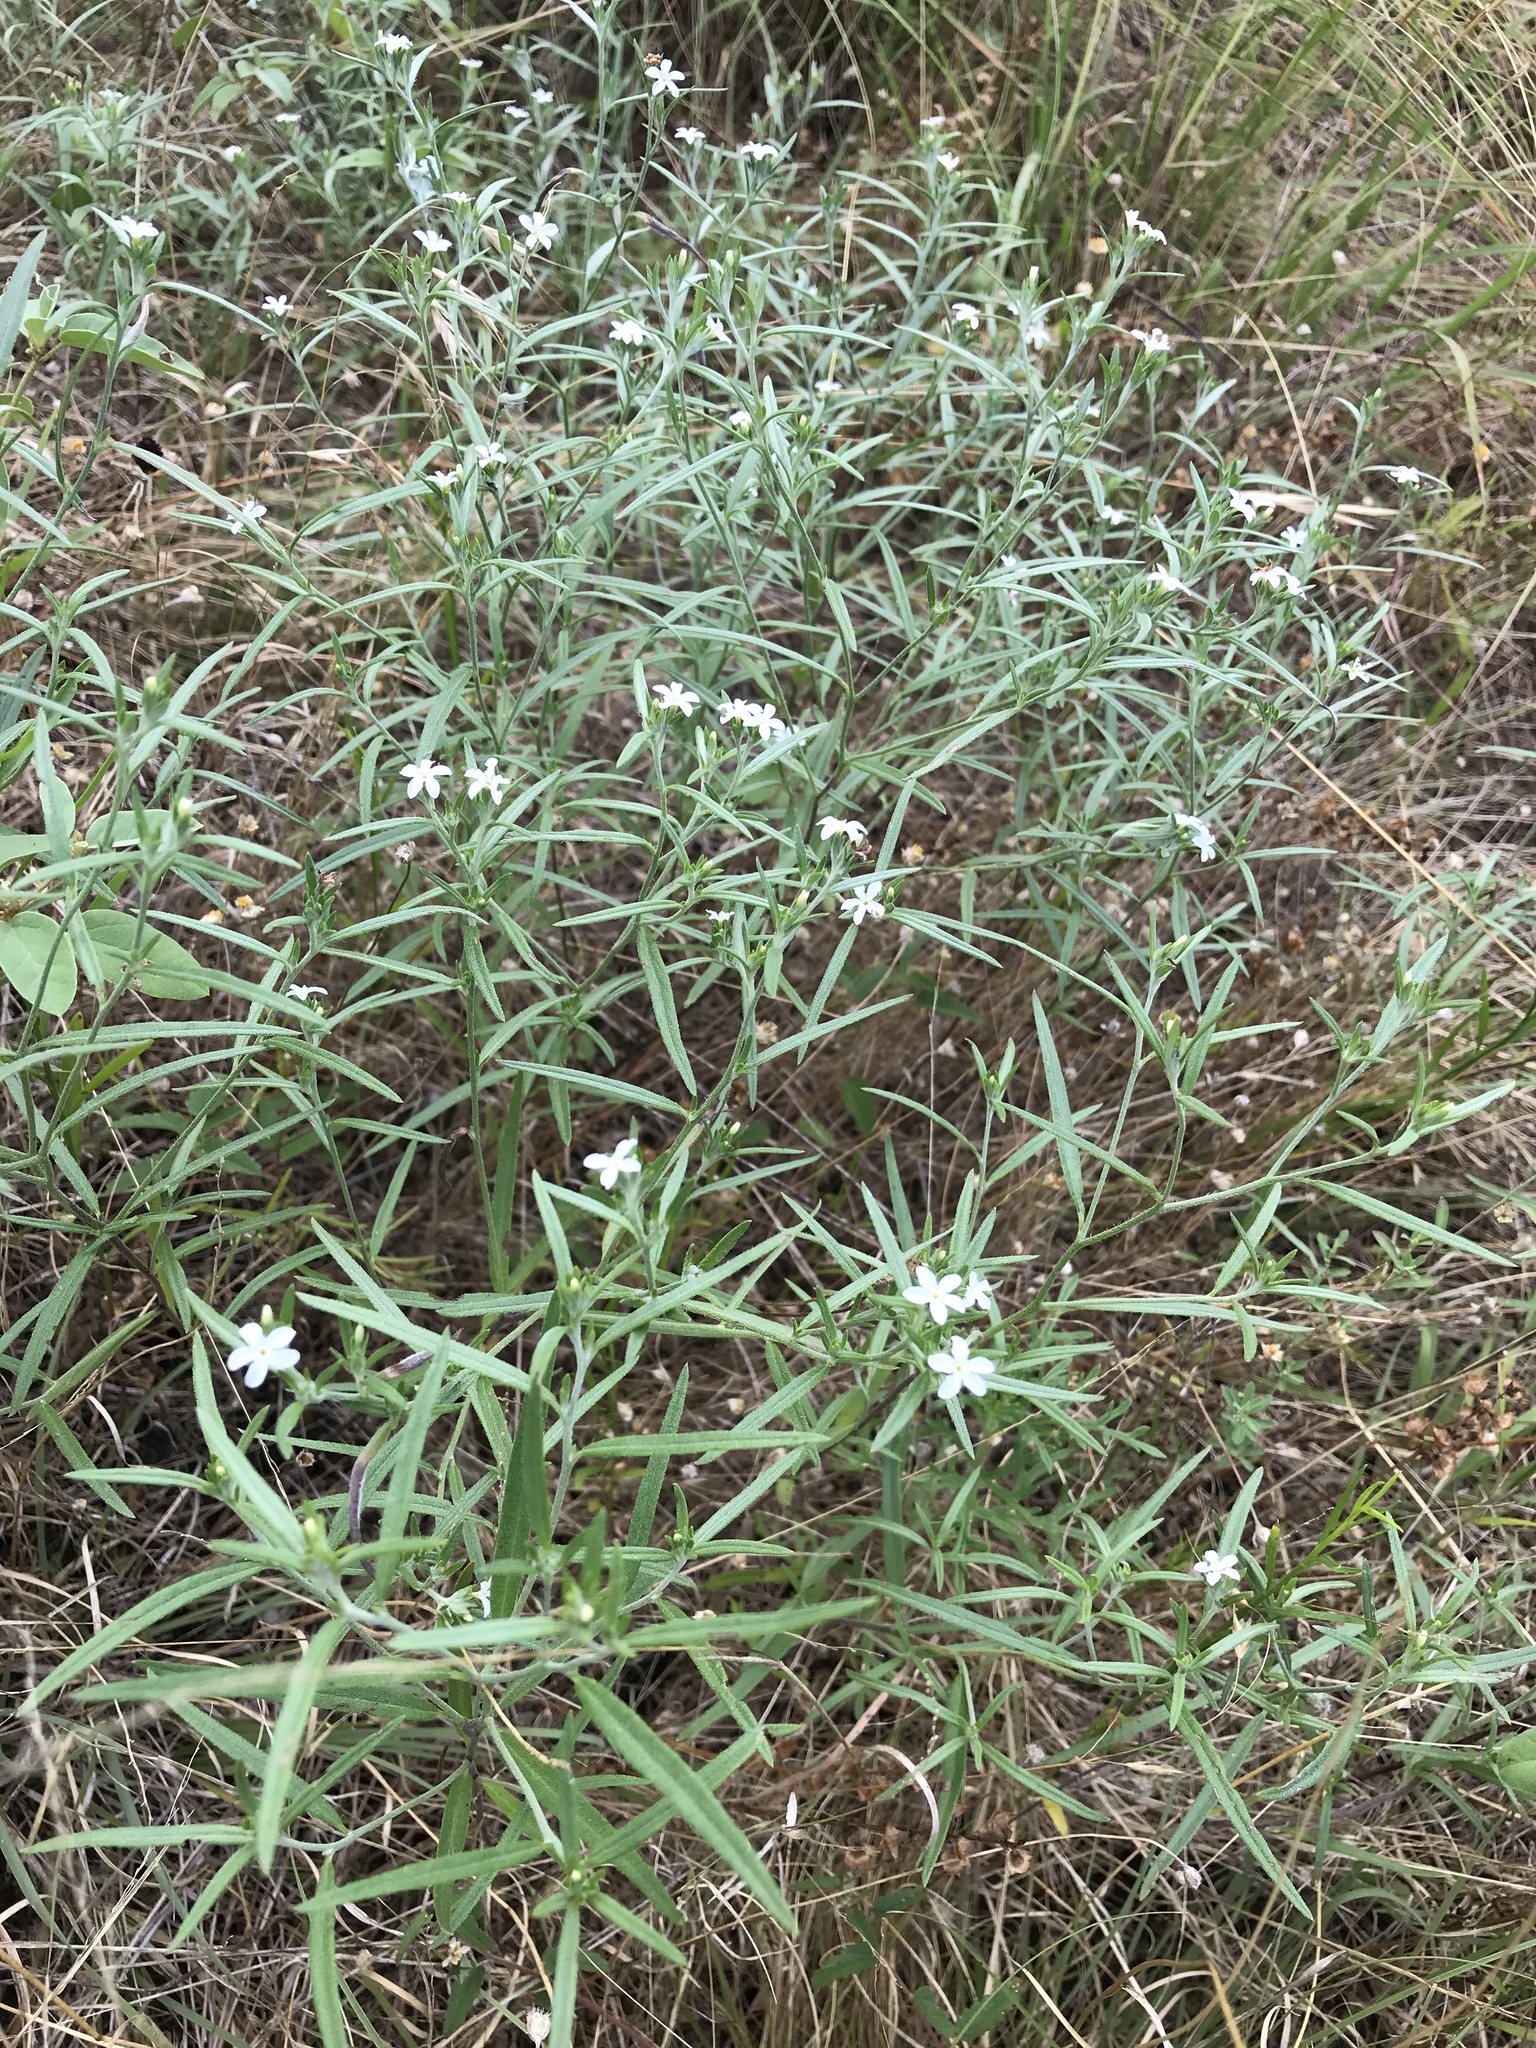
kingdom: Plantae
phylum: Tracheophyta
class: Magnoliopsida
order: Boraginales
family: Heliotropiaceae
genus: Euploca
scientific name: Euploca tenella
